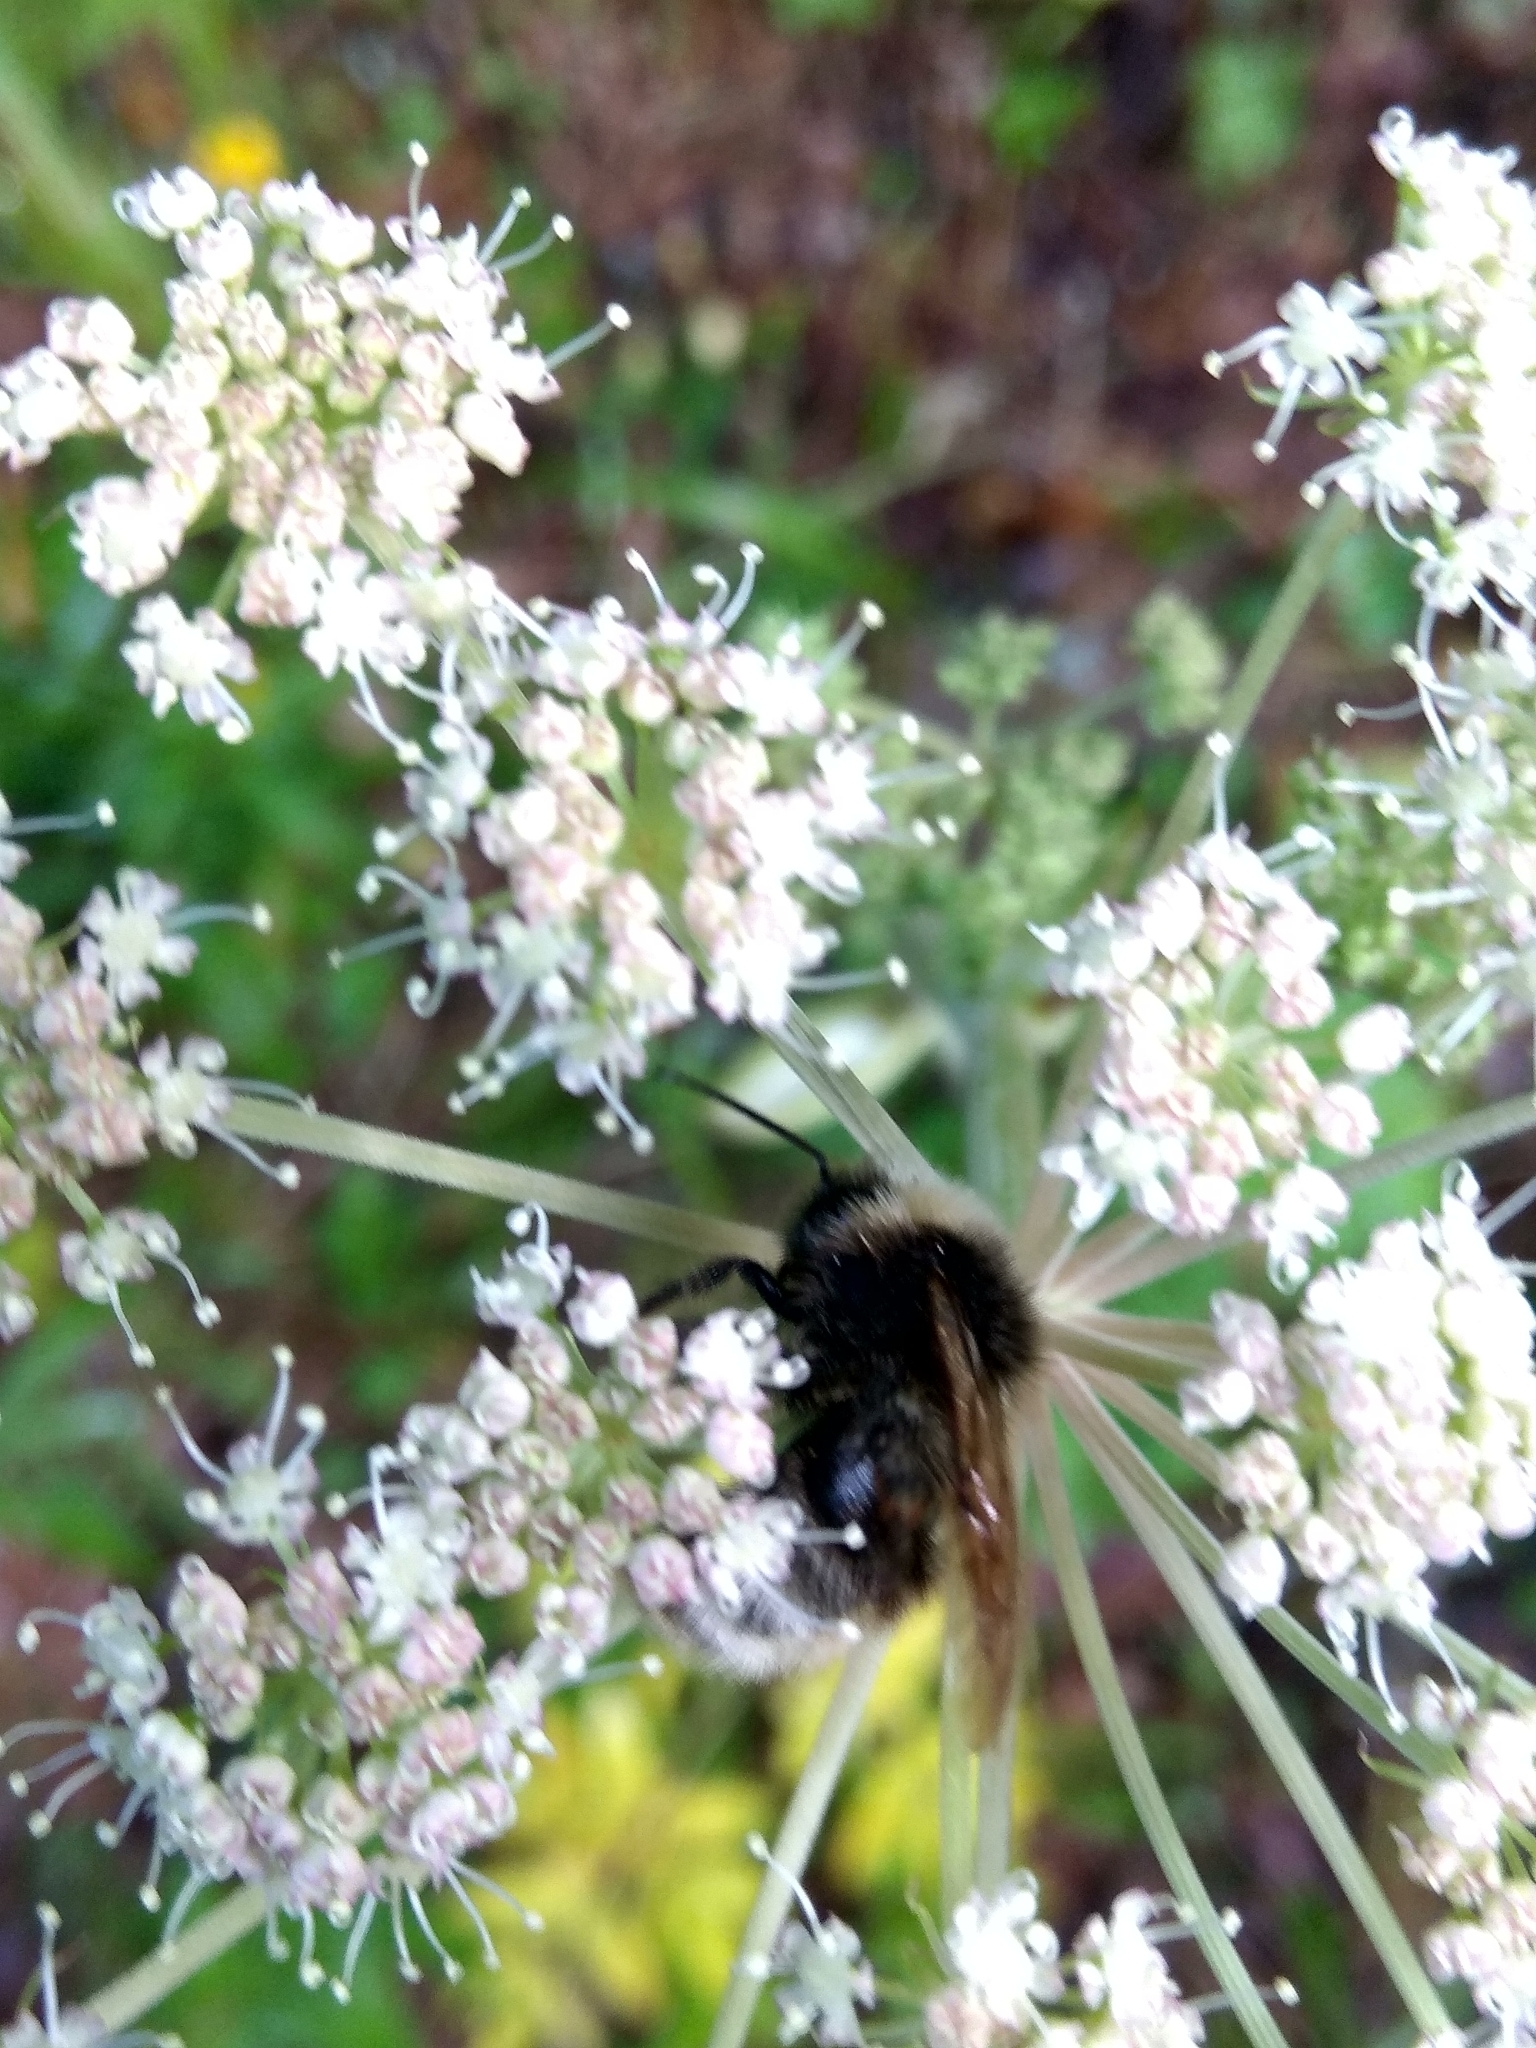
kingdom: Animalia
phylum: Arthropoda
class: Insecta
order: Hymenoptera
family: Apidae
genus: Bombus
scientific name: Bombus
